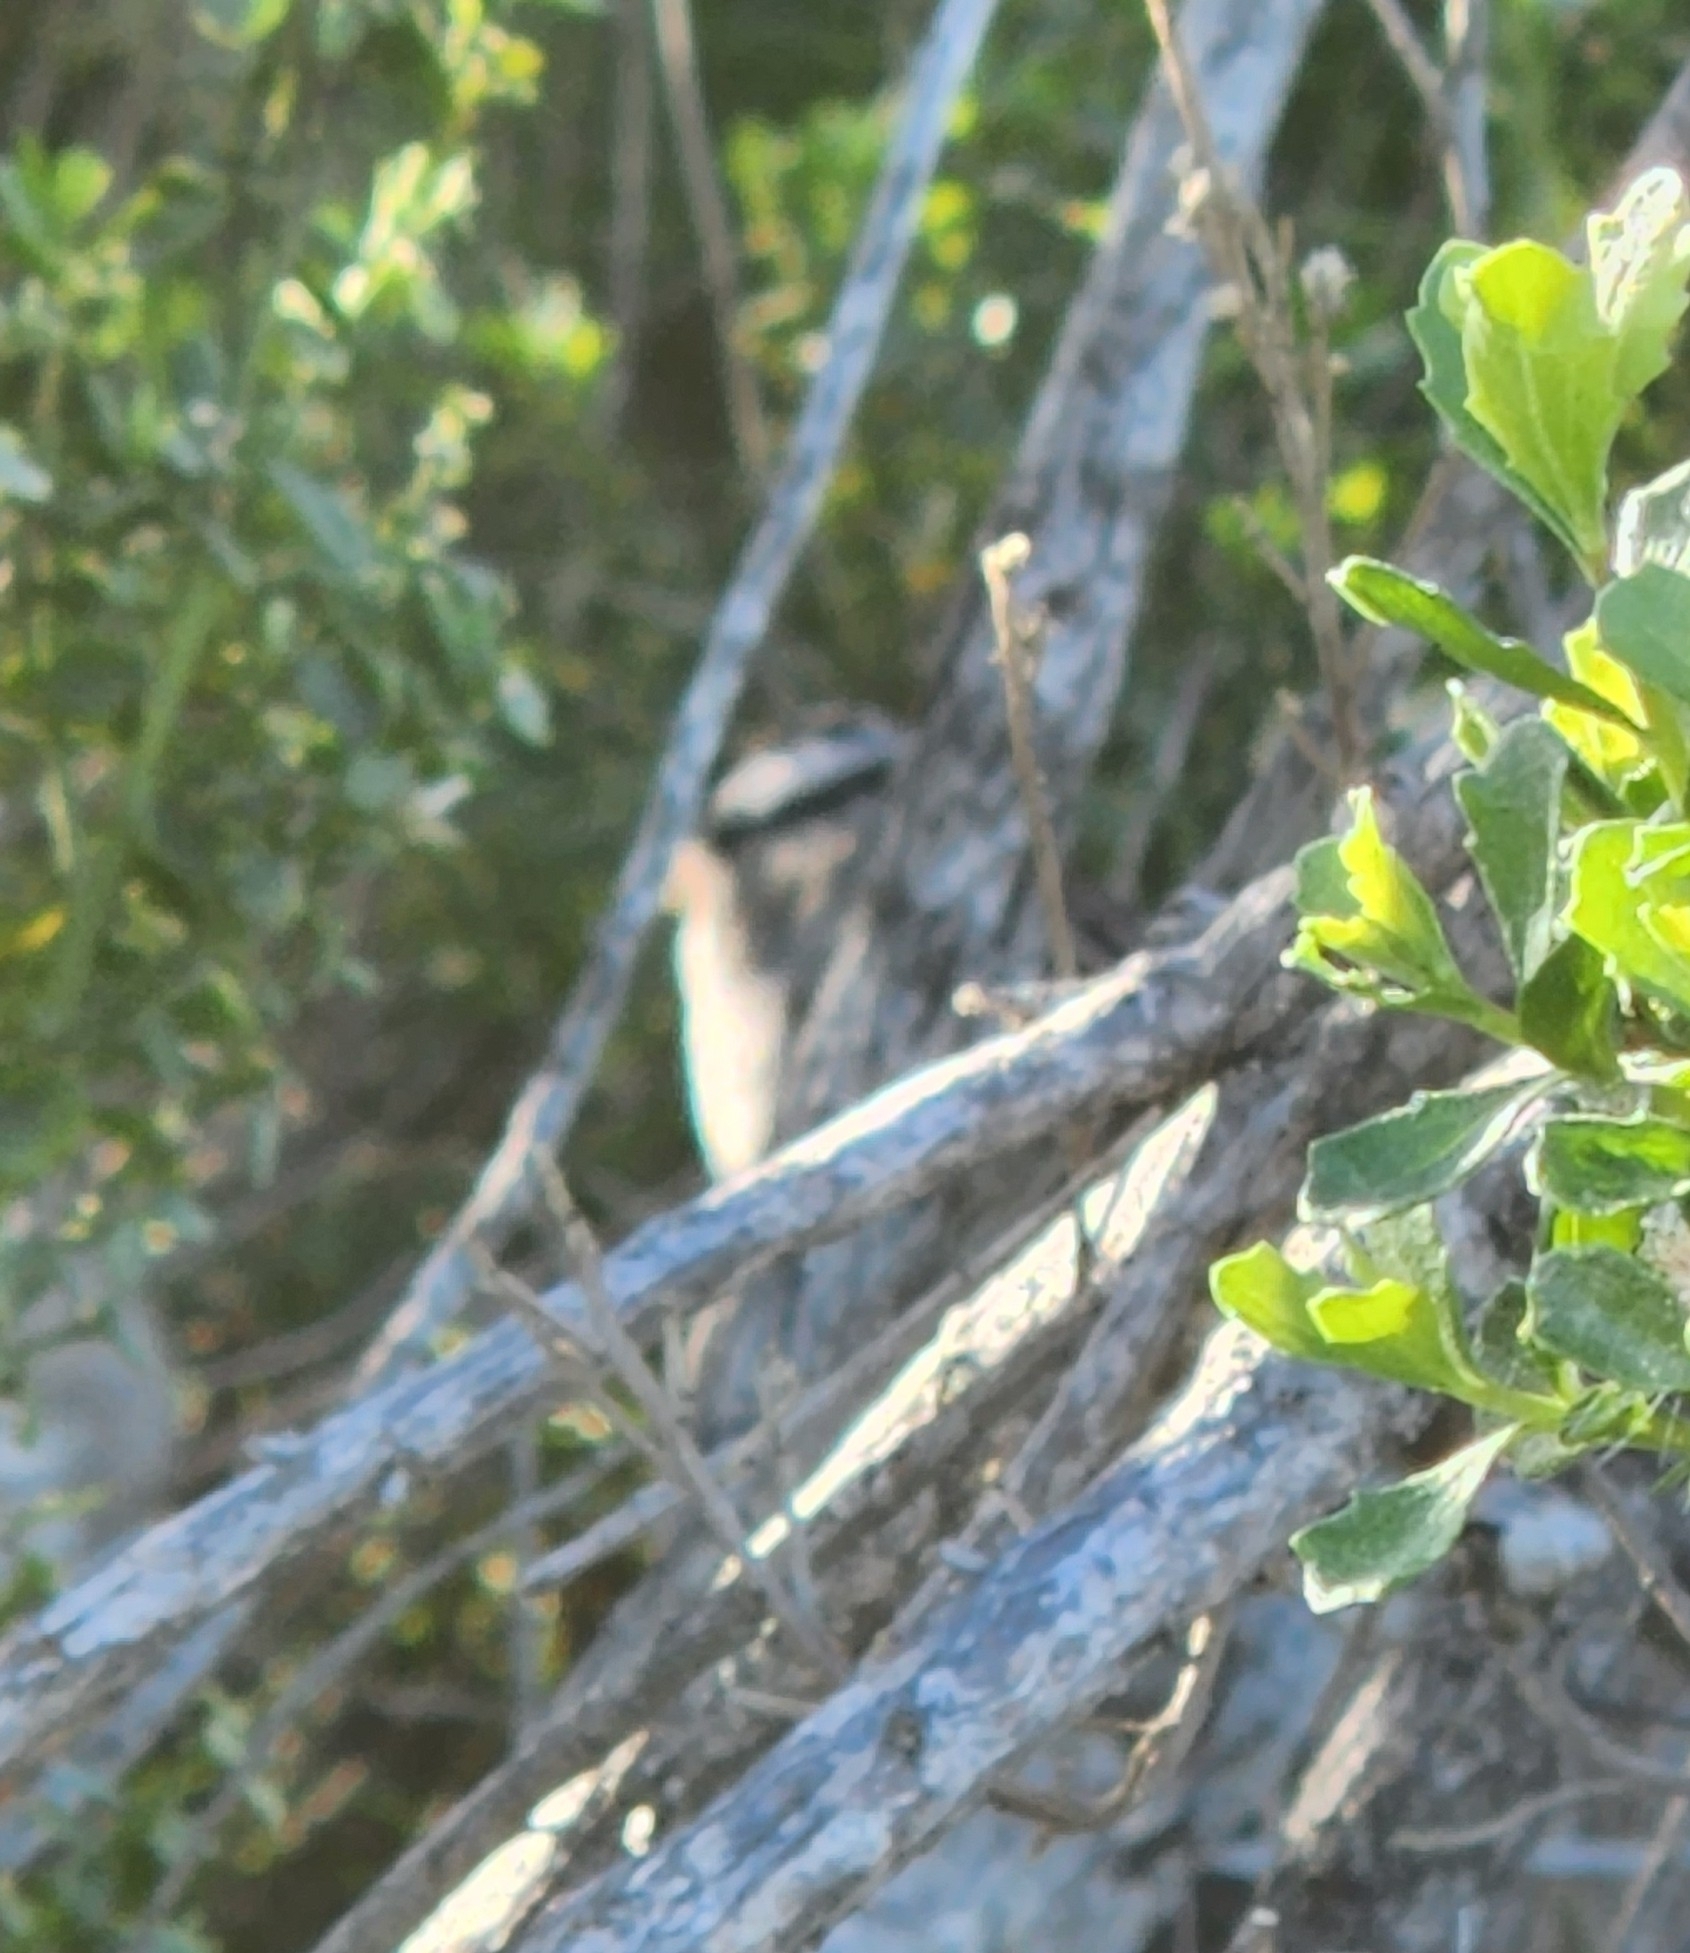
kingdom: Animalia
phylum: Chordata
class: Aves
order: Passeriformes
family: Passerellidae
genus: Zonotrichia
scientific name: Zonotrichia leucophrys
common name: White-crowned sparrow
